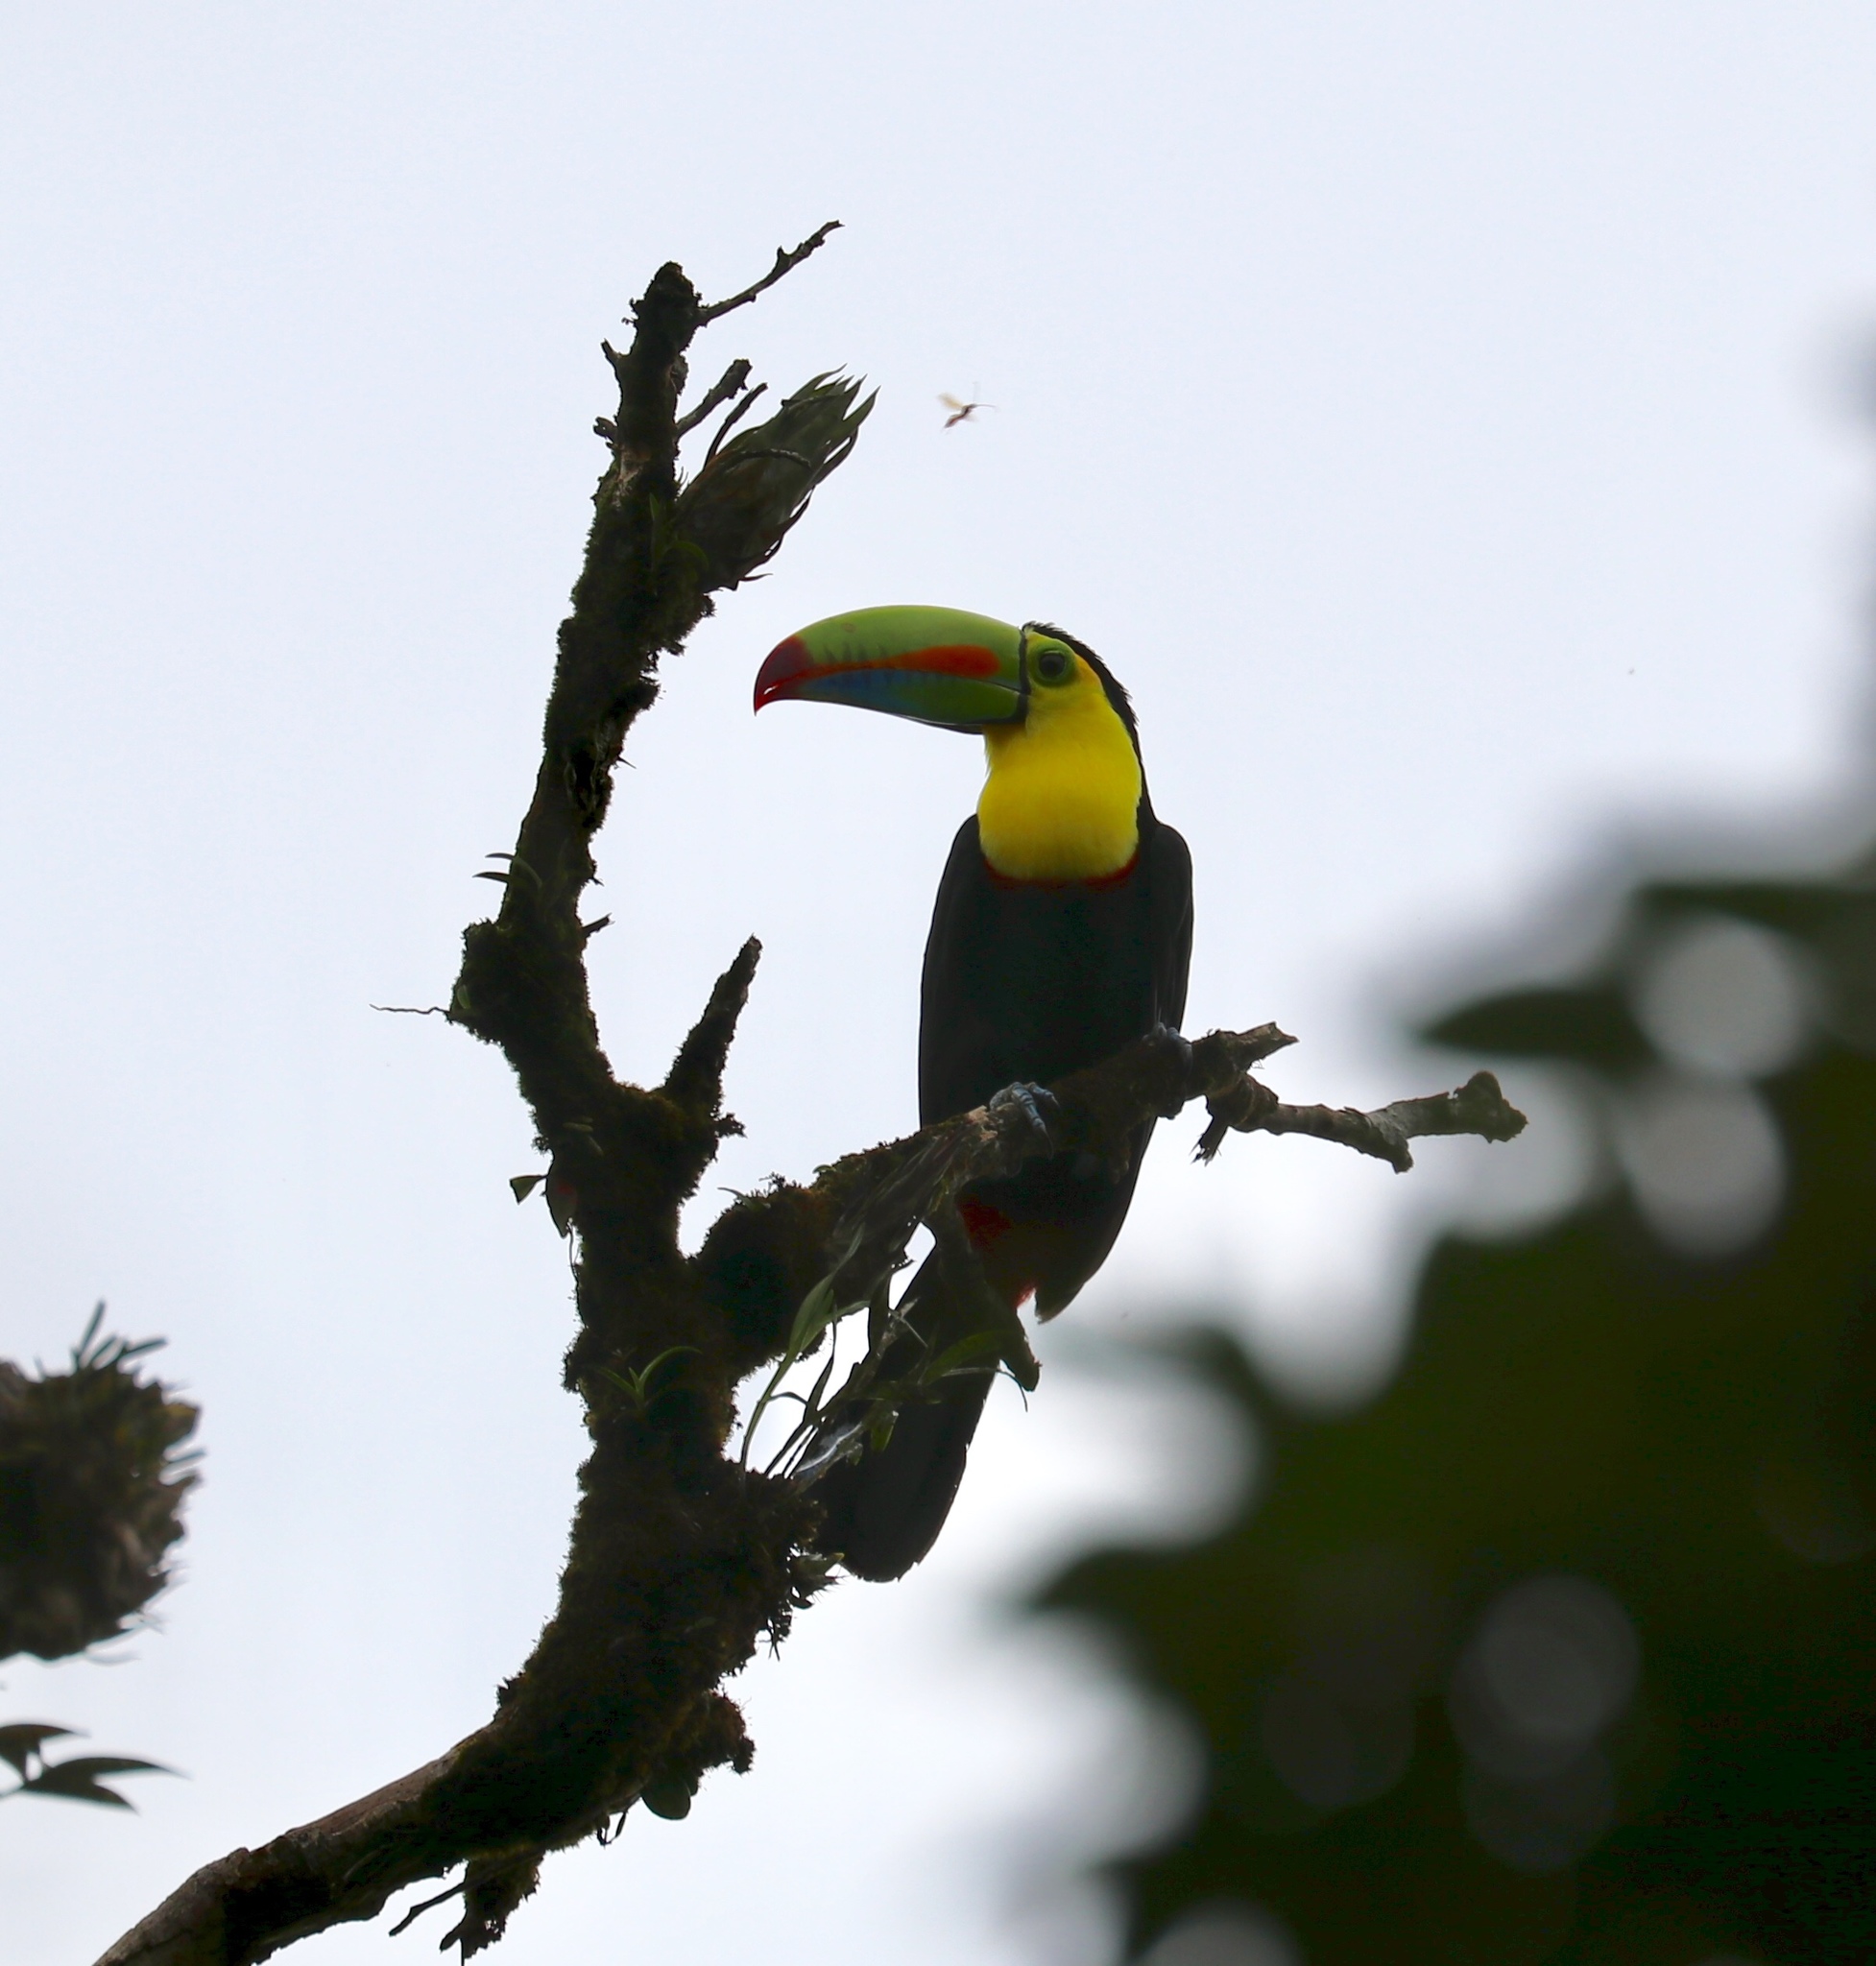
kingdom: Animalia
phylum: Chordata
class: Aves
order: Piciformes
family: Ramphastidae
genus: Ramphastos
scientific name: Ramphastos sulfuratus
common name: Keel-billed toucan
